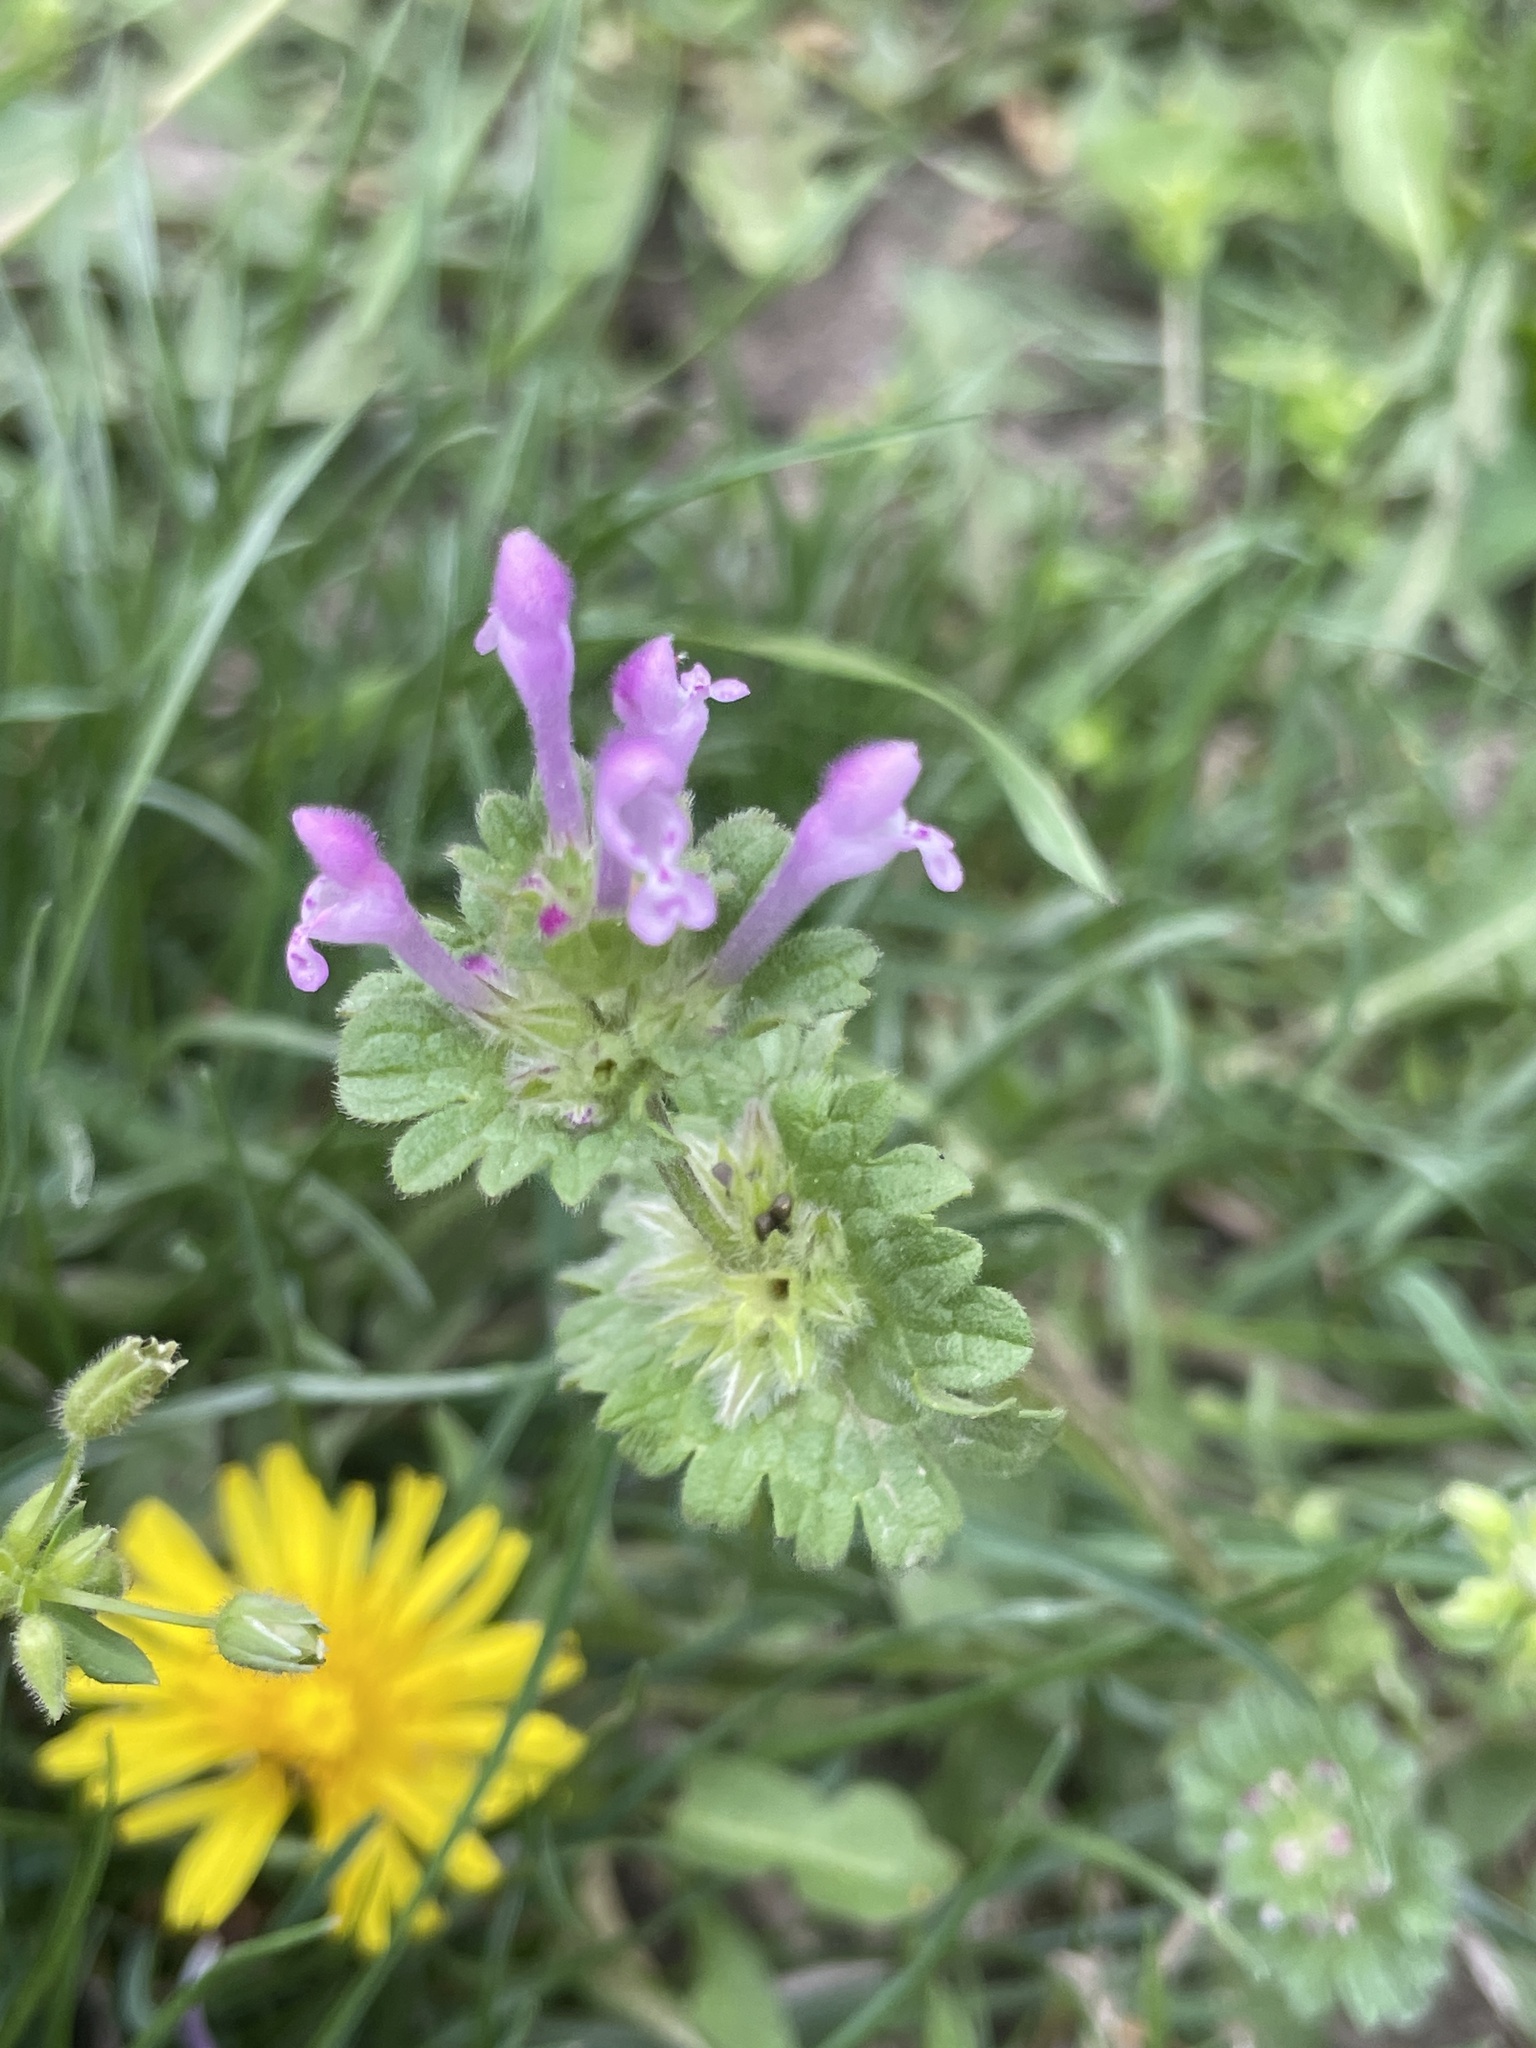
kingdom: Plantae
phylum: Tracheophyta
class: Magnoliopsida
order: Lamiales
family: Lamiaceae
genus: Lamium
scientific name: Lamium amplexicaule
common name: Henbit dead-nettle
